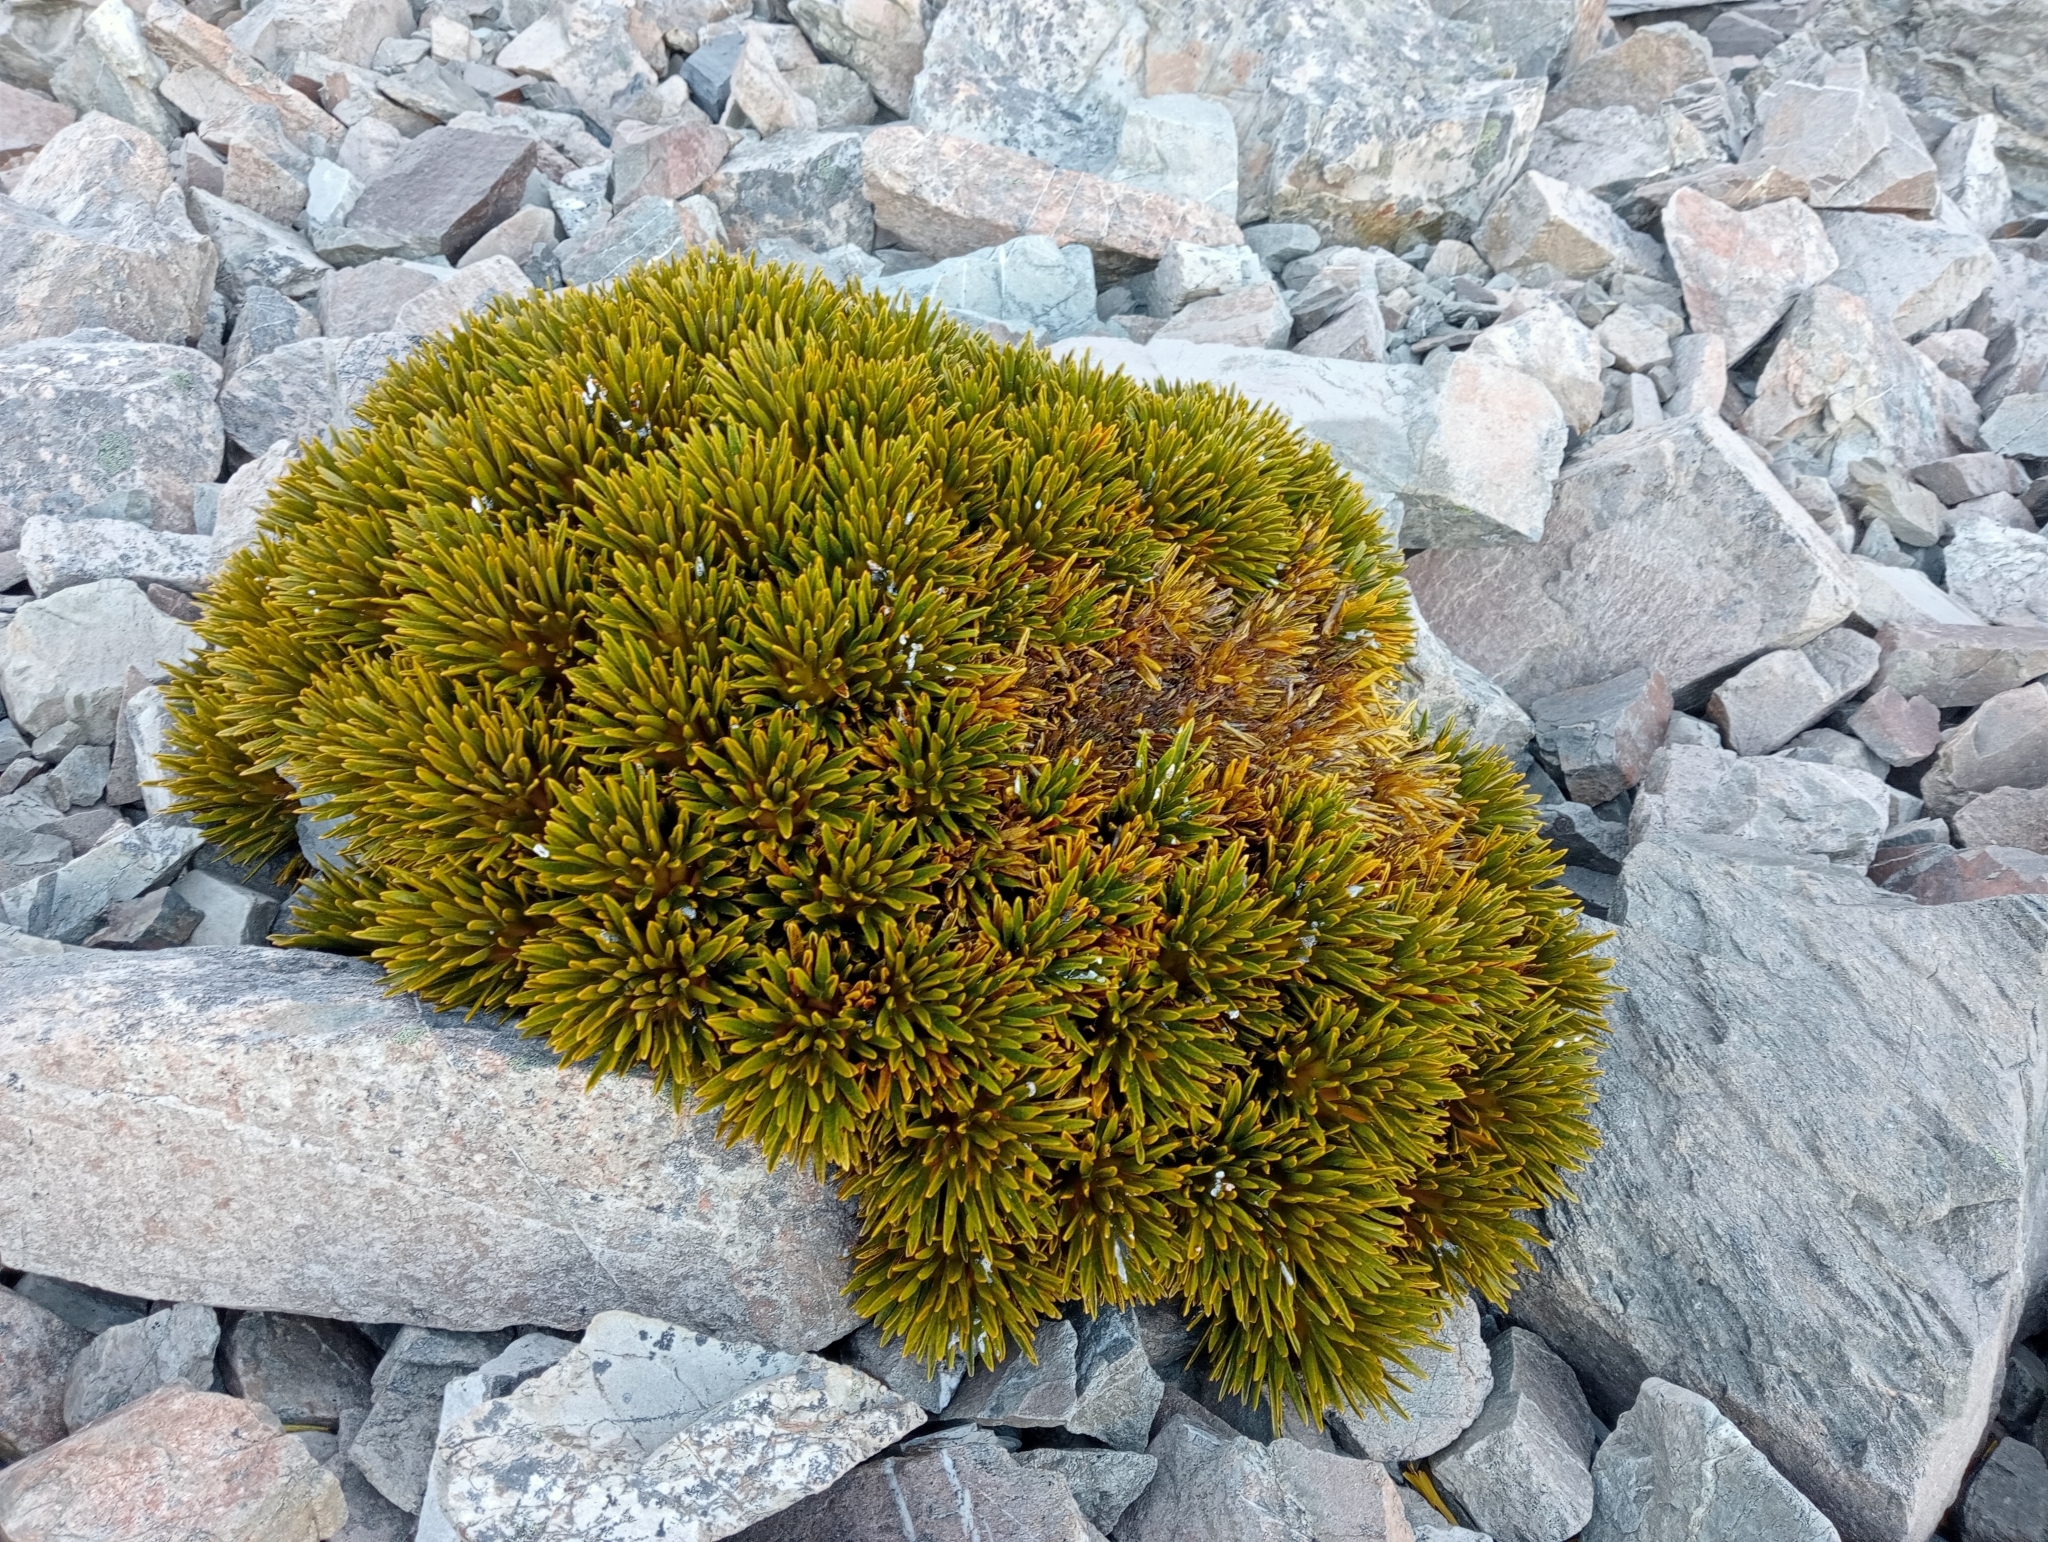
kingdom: Plantae
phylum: Tracheophyta
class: Magnoliopsida
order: Apiales
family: Apiaceae
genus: Aciphylla
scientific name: Aciphylla dobsonii
